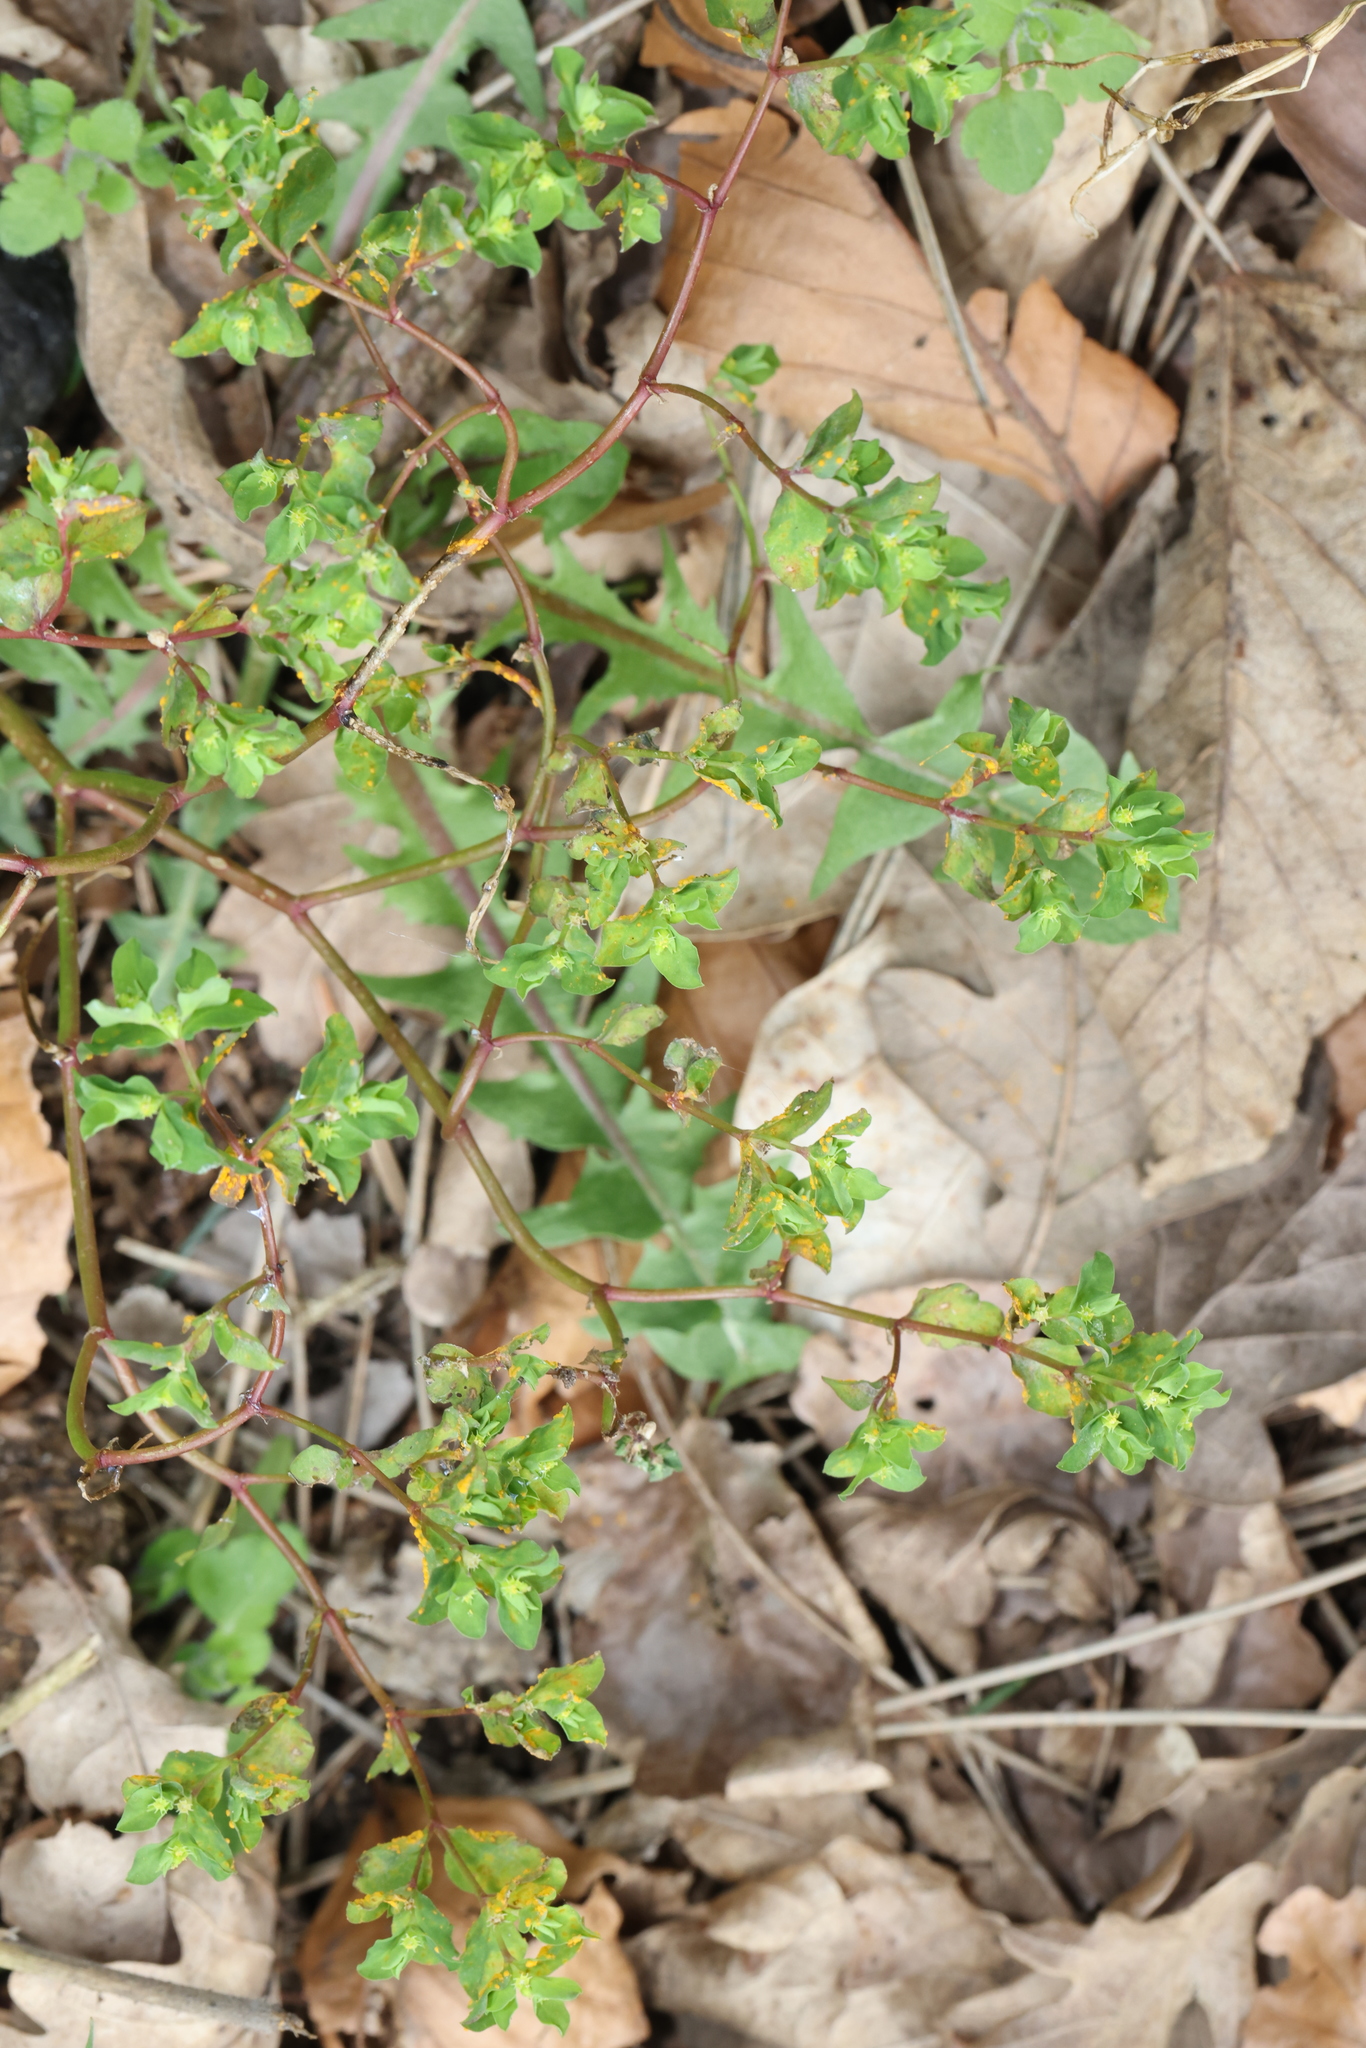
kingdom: Plantae
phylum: Tracheophyta
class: Magnoliopsida
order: Malpighiales
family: Euphorbiaceae
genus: Euphorbia
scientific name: Euphorbia peplus
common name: Petty spurge
